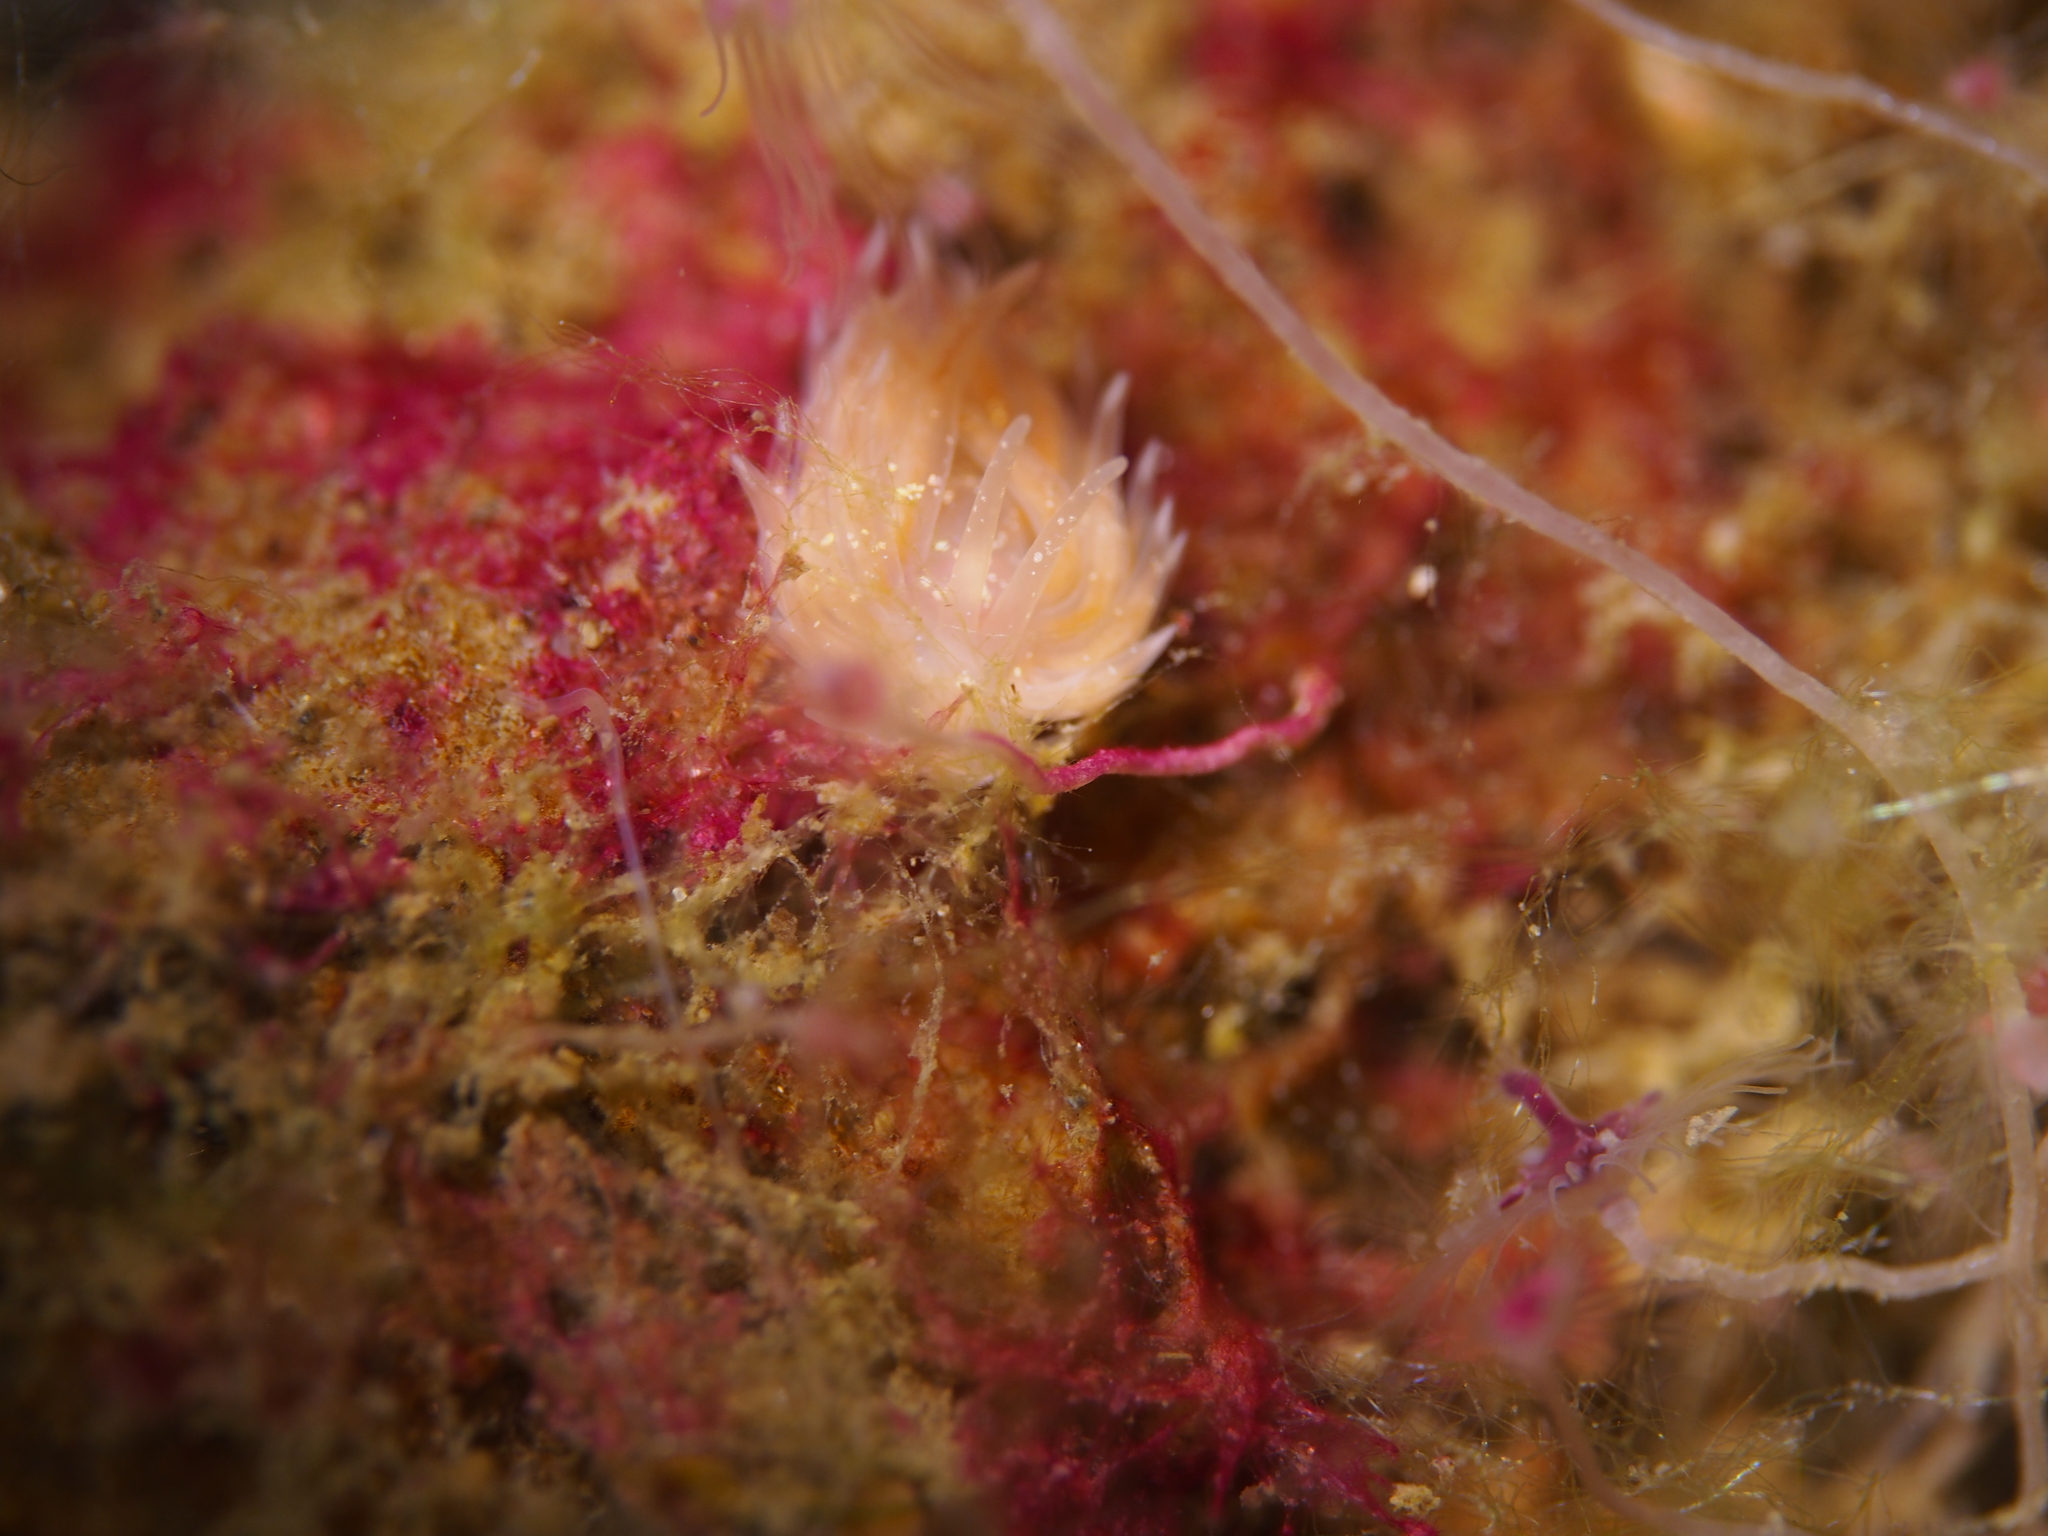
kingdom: Animalia
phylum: Mollusca
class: Gastropoda
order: Nudibranchia
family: Cumanotidae
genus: Cumanotus
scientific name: Cumanotus beaumonti
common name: Polyp aeolis
